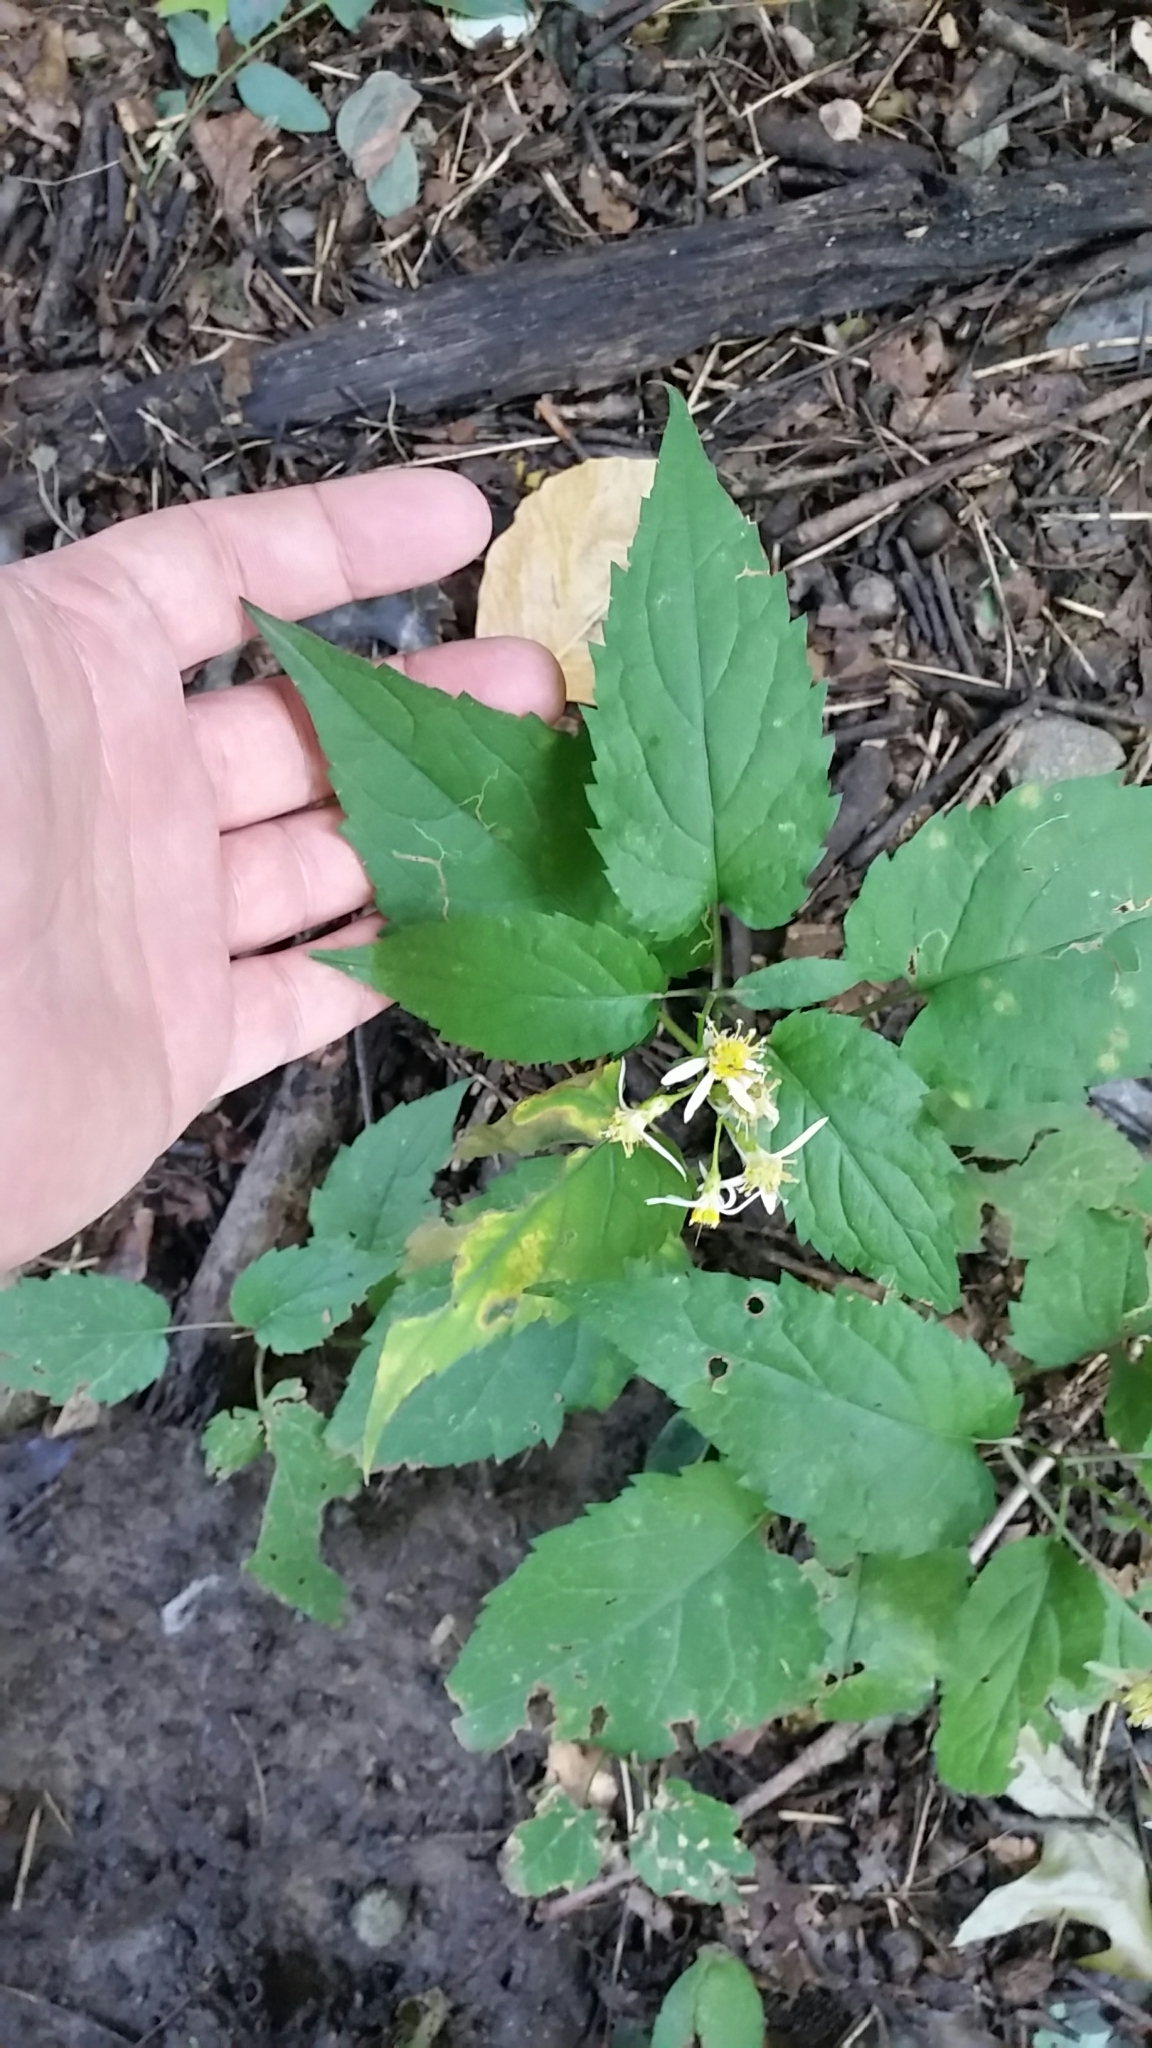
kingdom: Plantae
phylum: Tracheophyta
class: Magnoliopsida
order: Asterales
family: Asteraceae
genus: Ageratina
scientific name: Ageratina altissima
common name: White snakeroot
